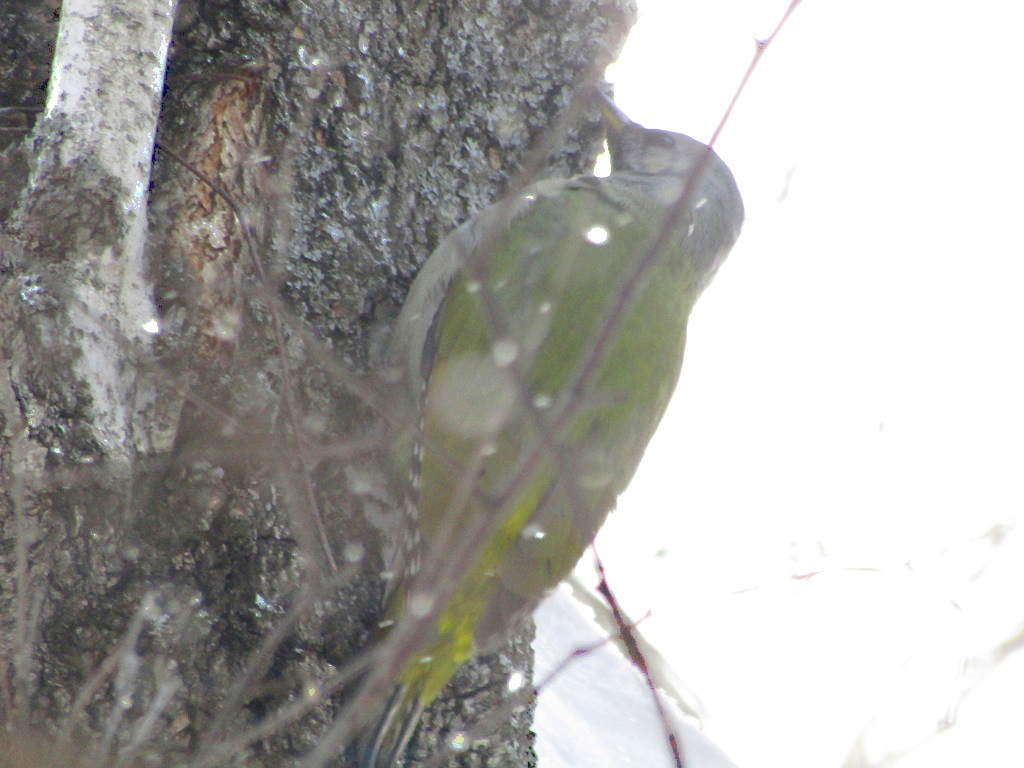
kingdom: Animalia
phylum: Chordata
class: Aves
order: Piciformes
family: Picidae
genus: Picus
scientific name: Picus canus
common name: Grey-headed woodpecker
